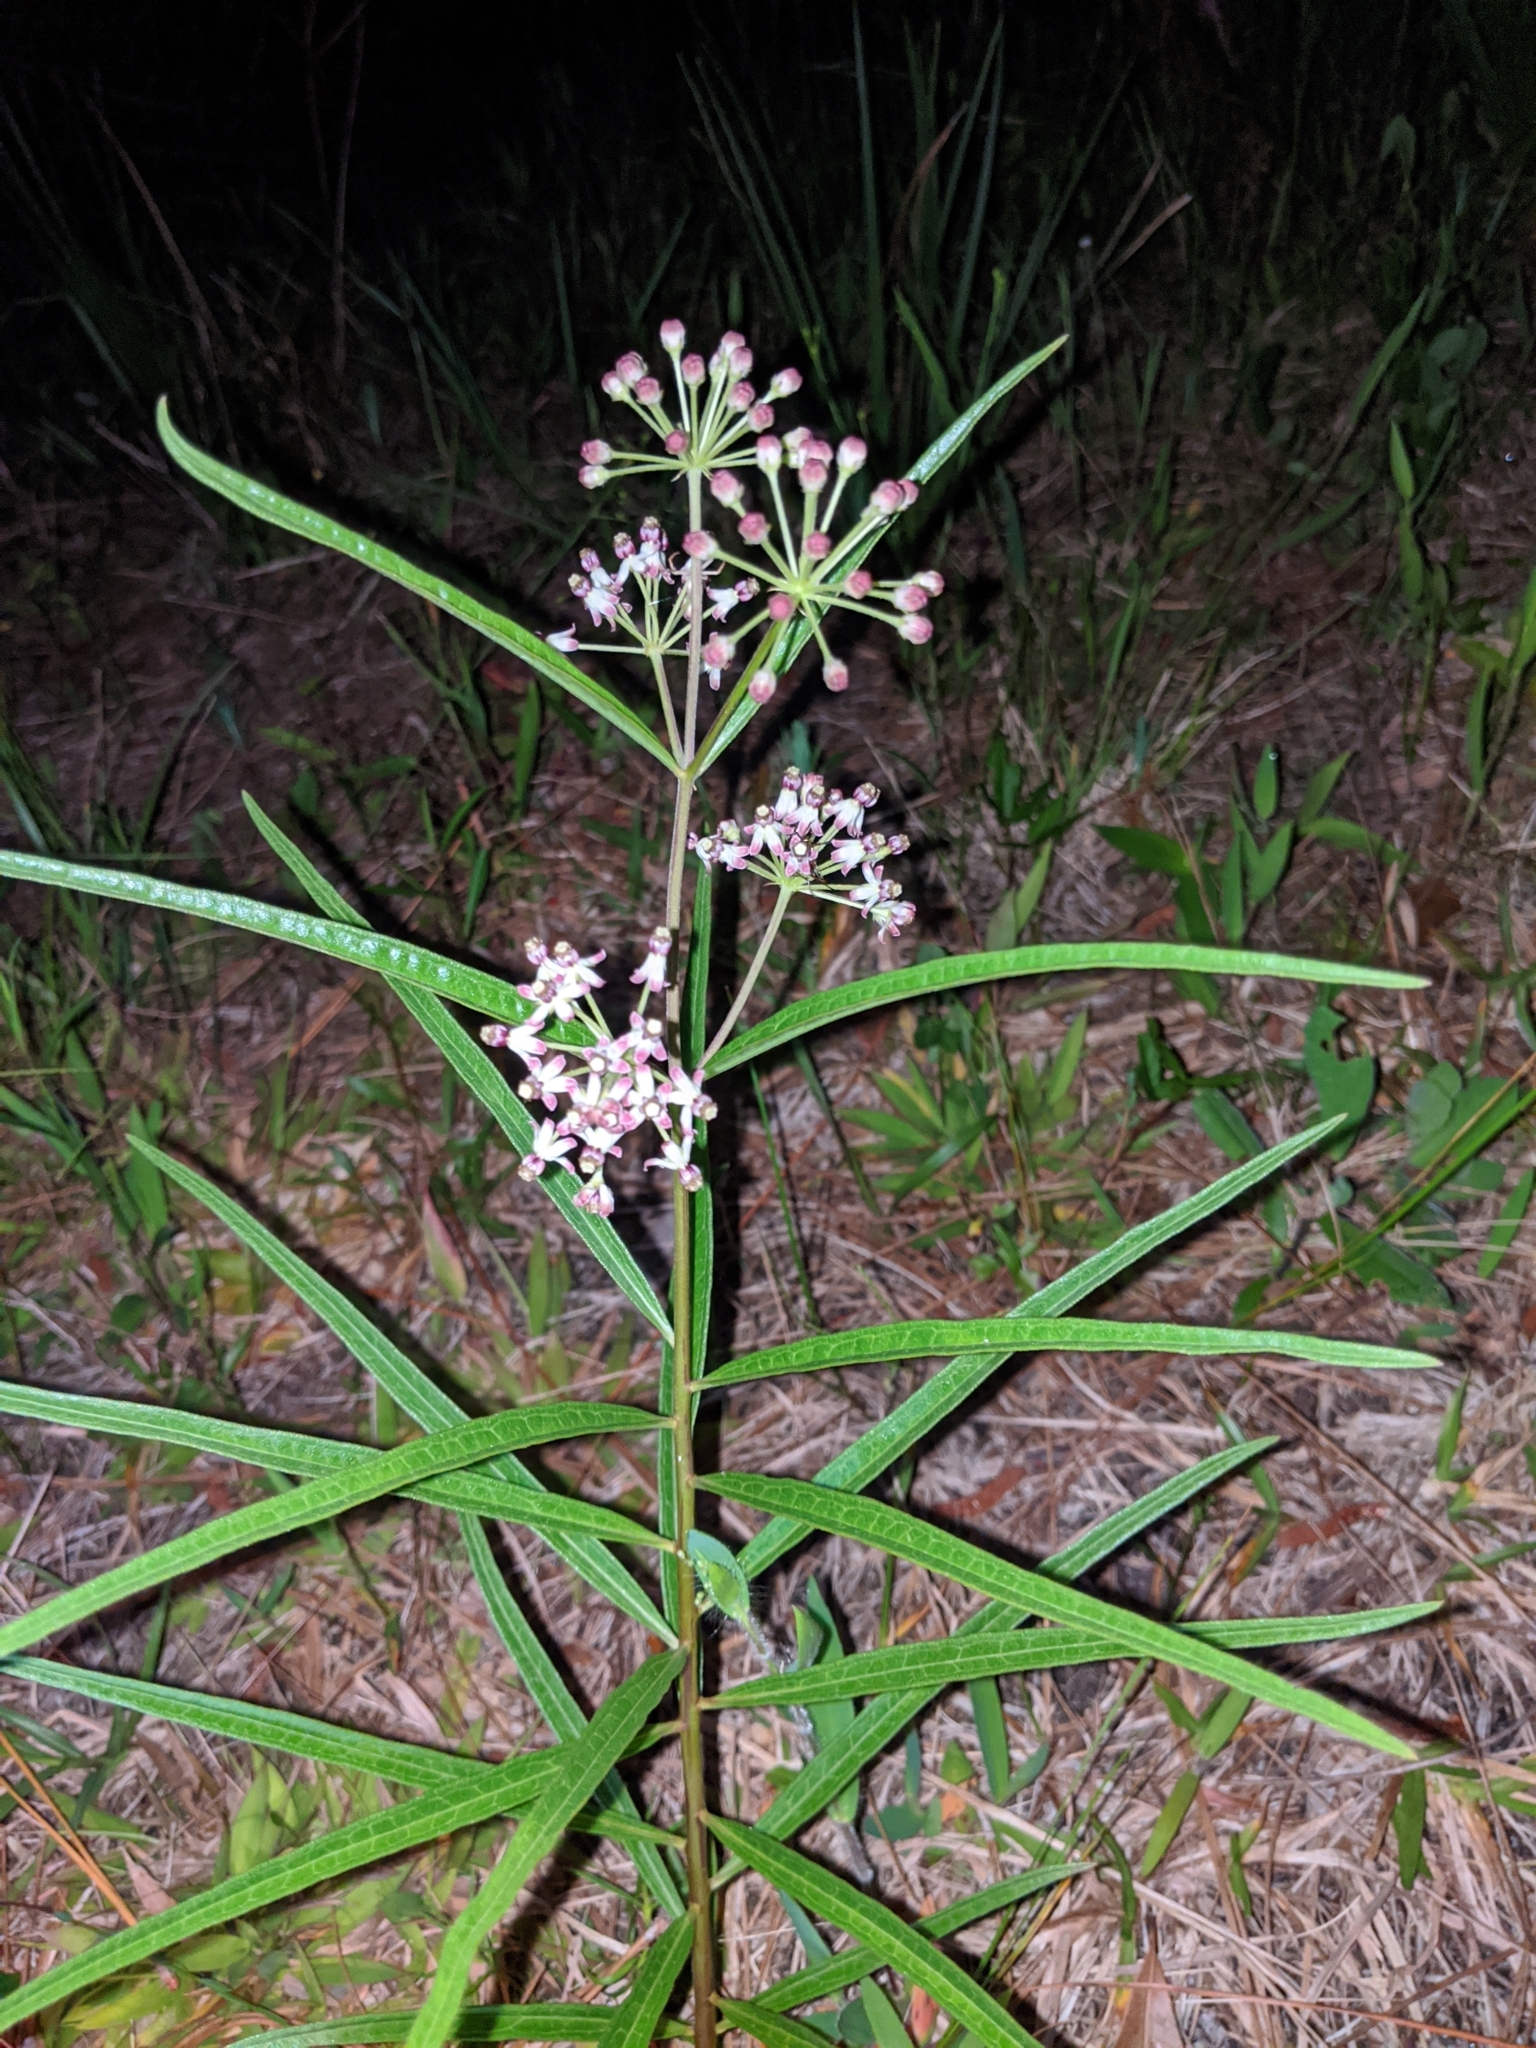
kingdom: Plantae
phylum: Tracheophyta
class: Magnoliopsida
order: Gentianales
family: Apocynaceae
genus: Asclepias
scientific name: Asclepias longifolia
